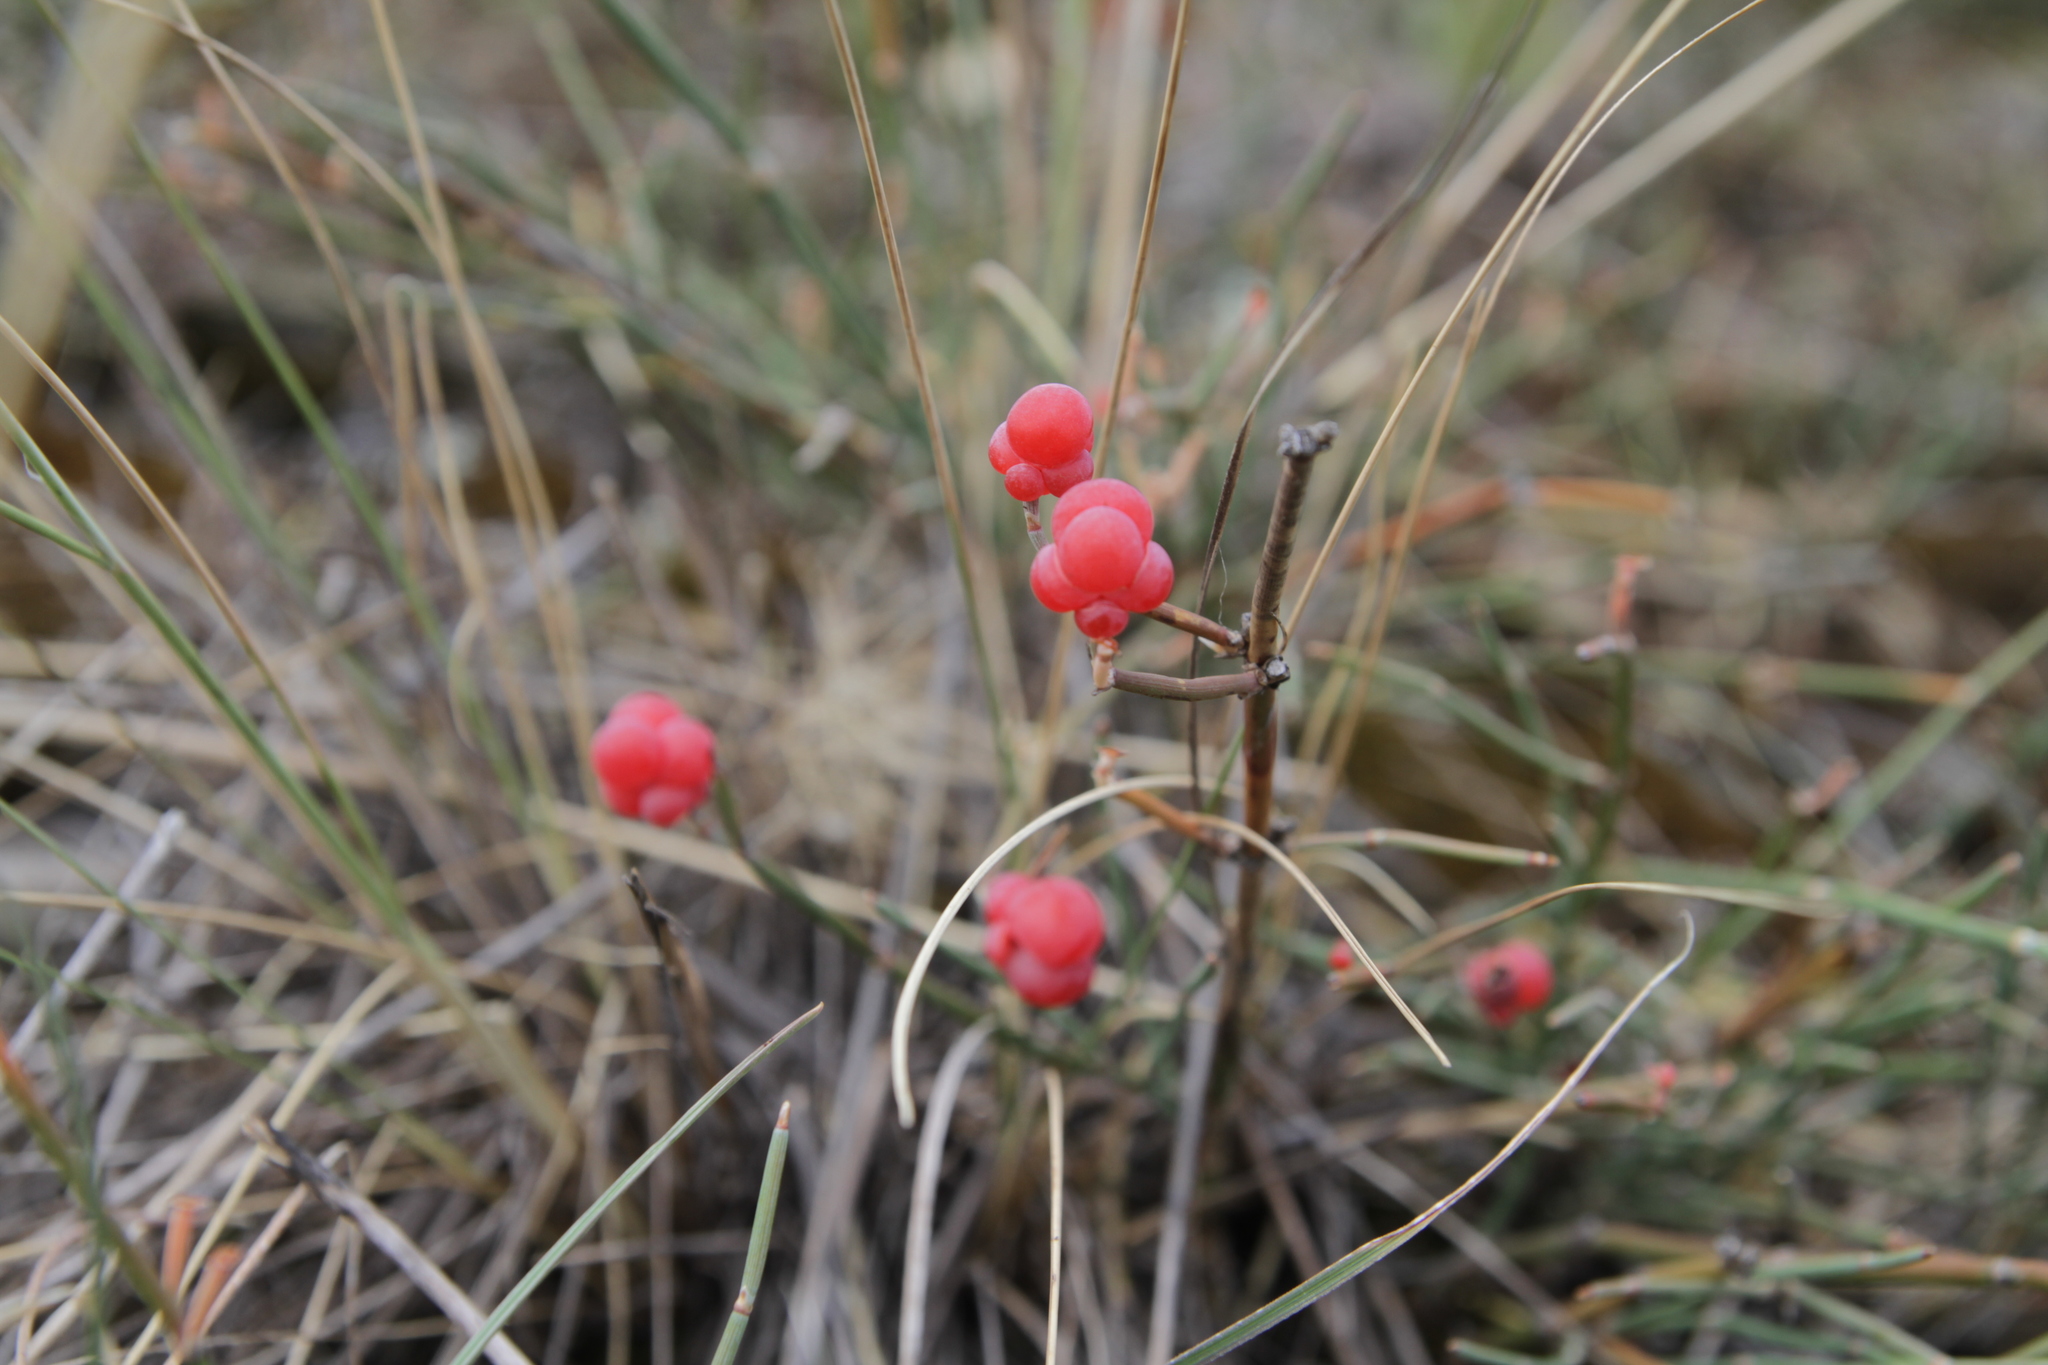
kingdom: Plantae
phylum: Tracheophyta
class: Gnetopsida
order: Ephedrales
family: Ephedraceae
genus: Ephedra
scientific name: Ephedra distachya
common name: Sea grape
